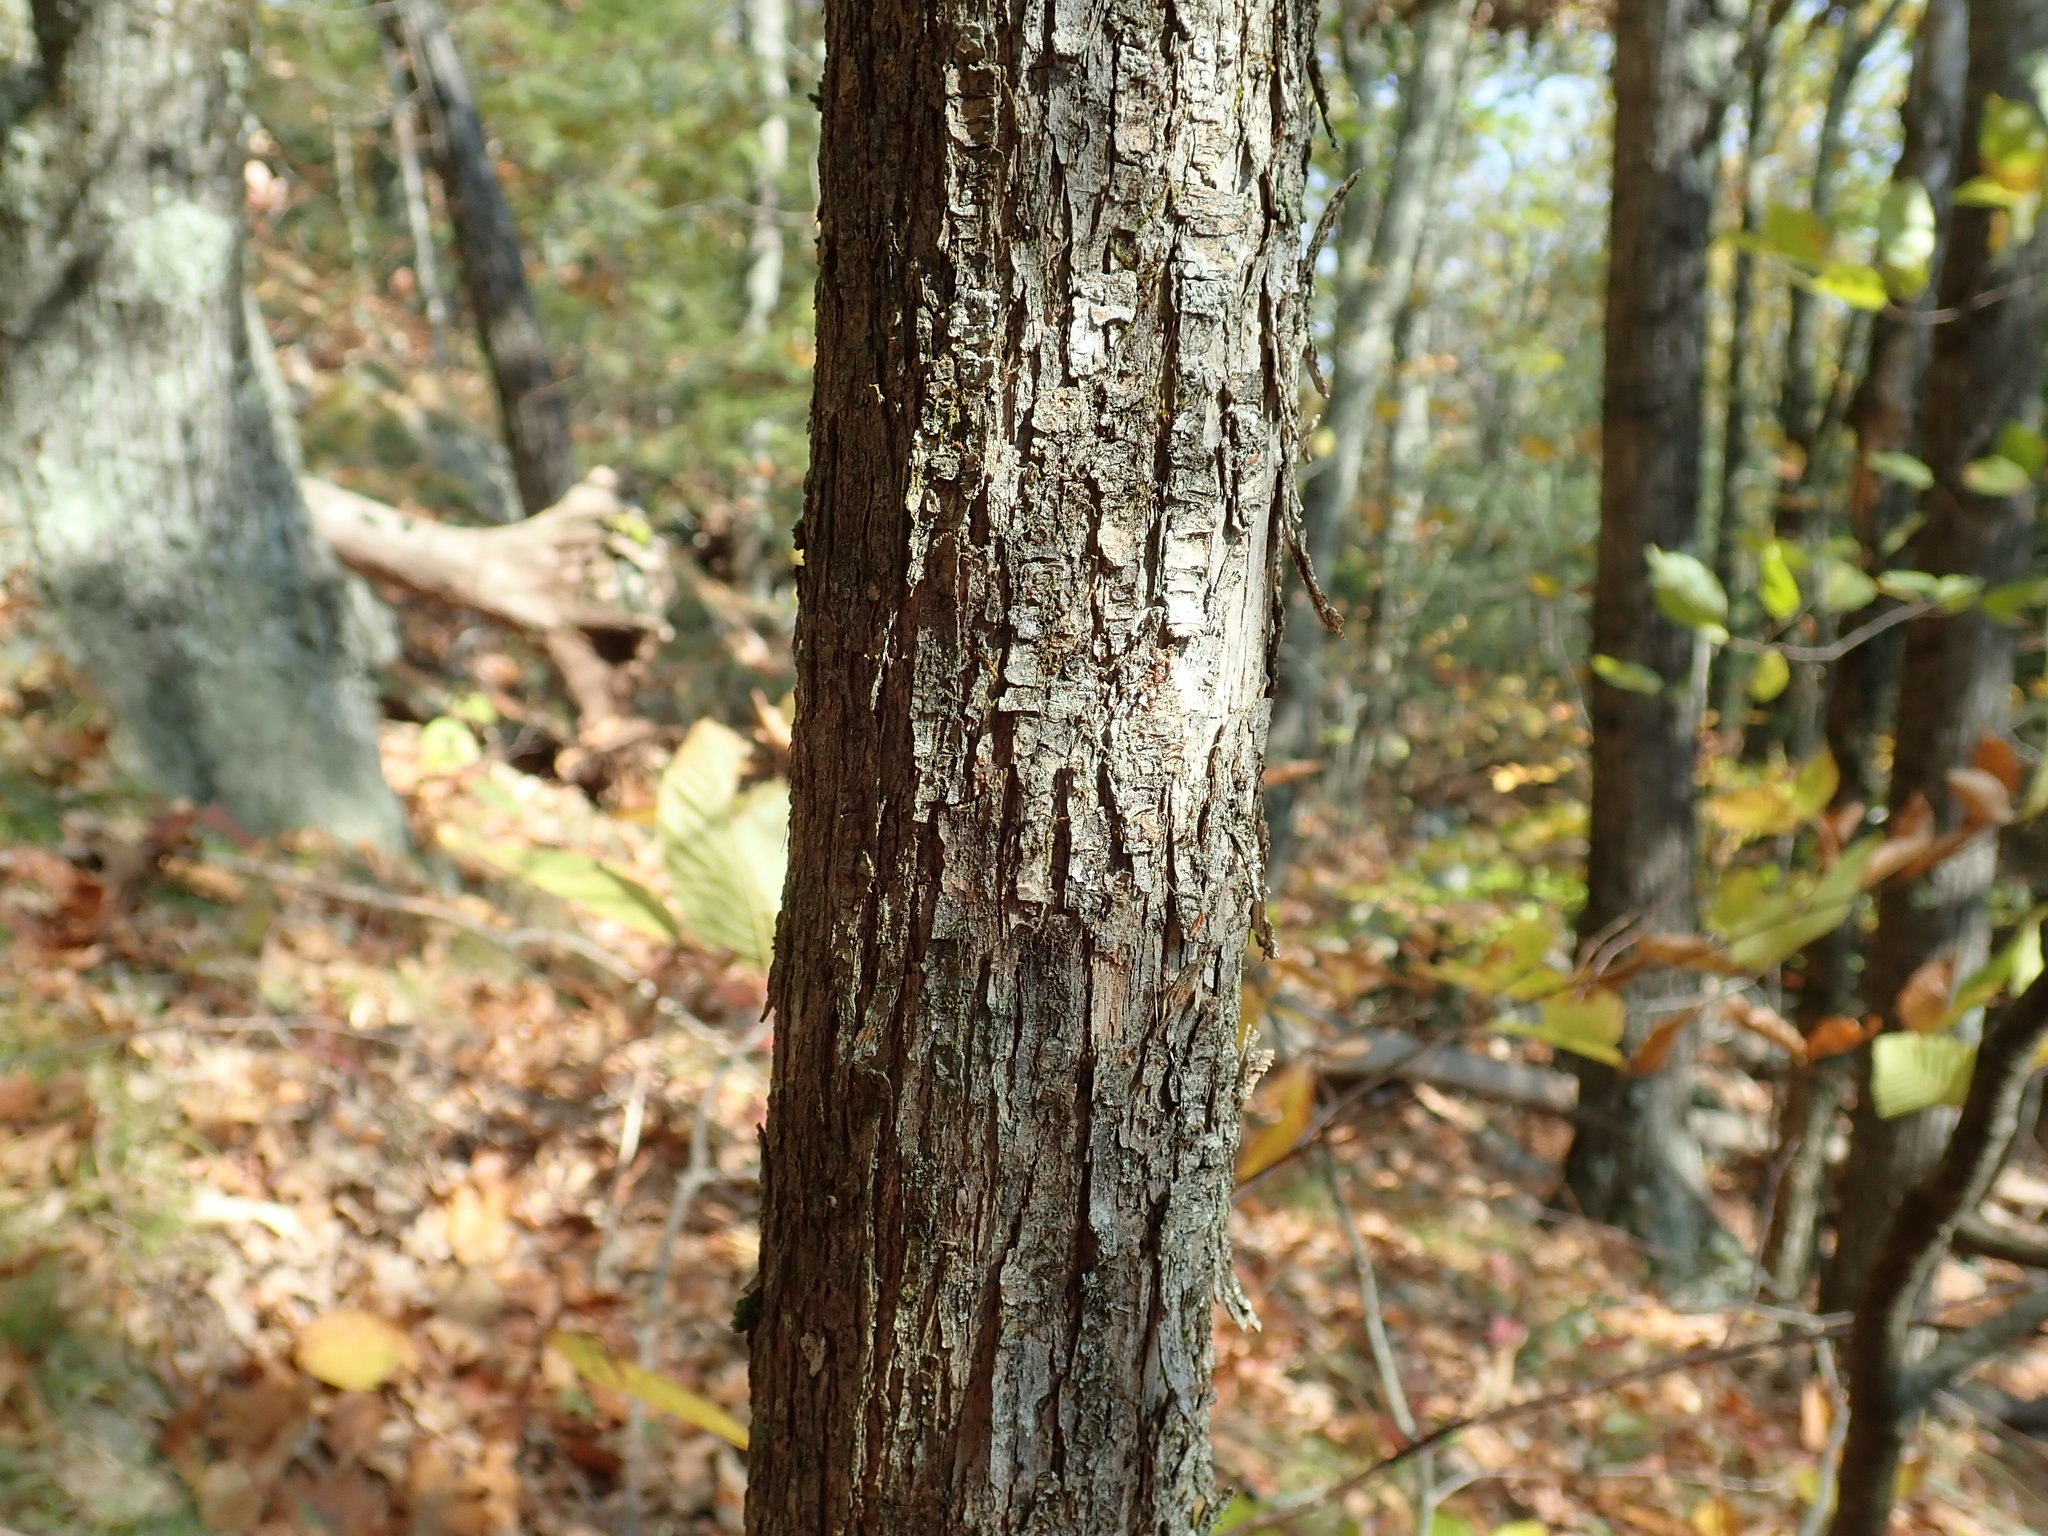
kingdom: Plantae
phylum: Tracheophyta
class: Magnoliopsida
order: Fagales
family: Betulaceae
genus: Ostrya
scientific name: Ostrya virginiana
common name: Ironwood
